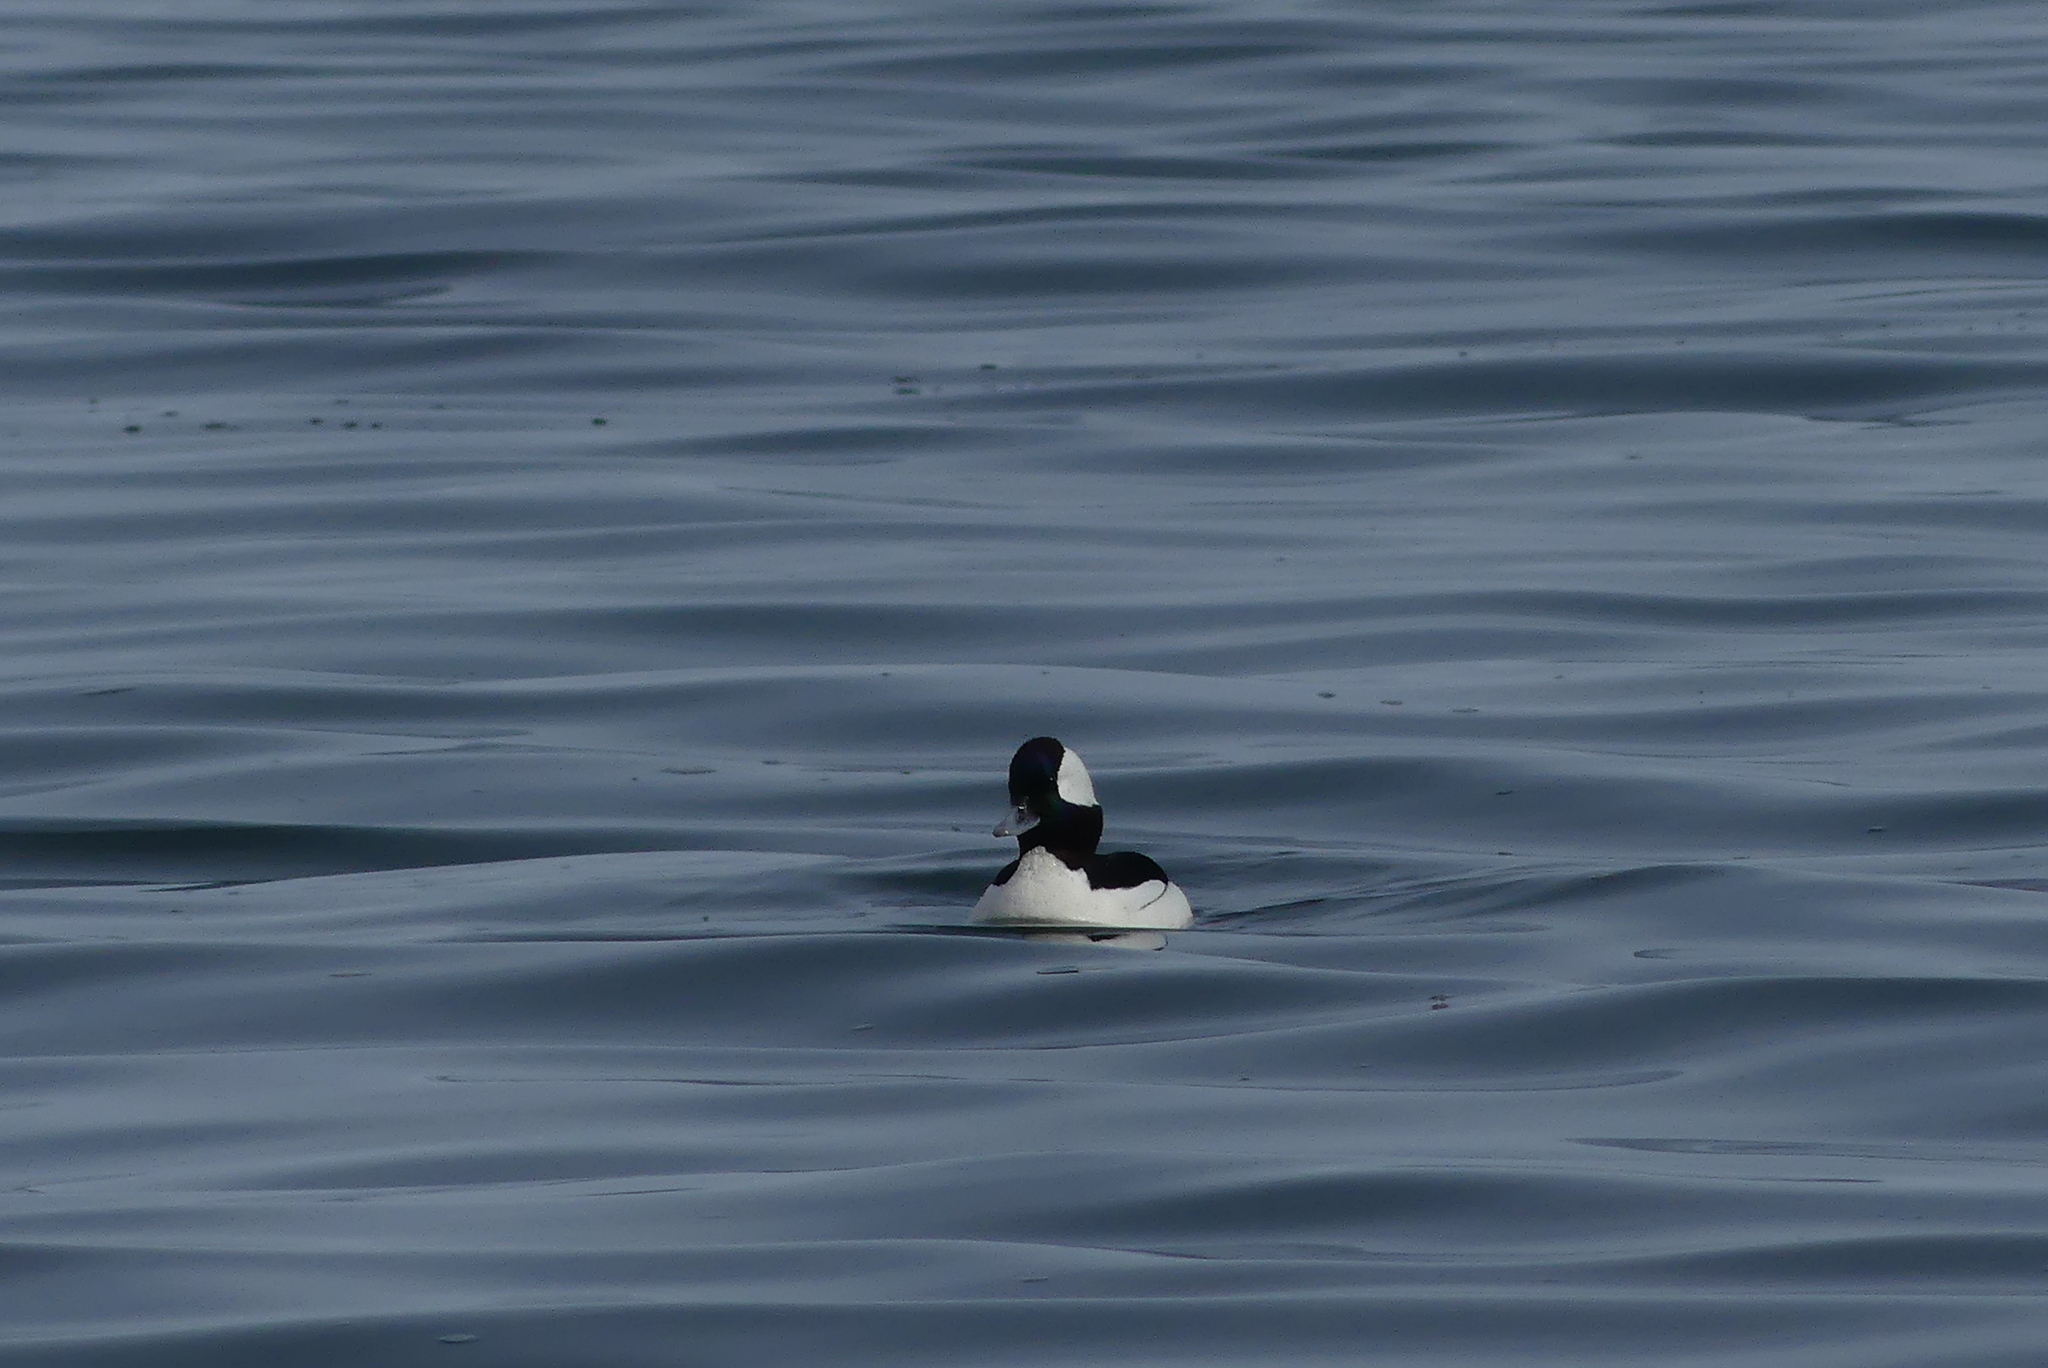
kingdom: Animalia
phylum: Chordata
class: Aves
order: Anseriformes
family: Anatidae
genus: Bucephala
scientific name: Bucephala albeola
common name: Bufflehead
